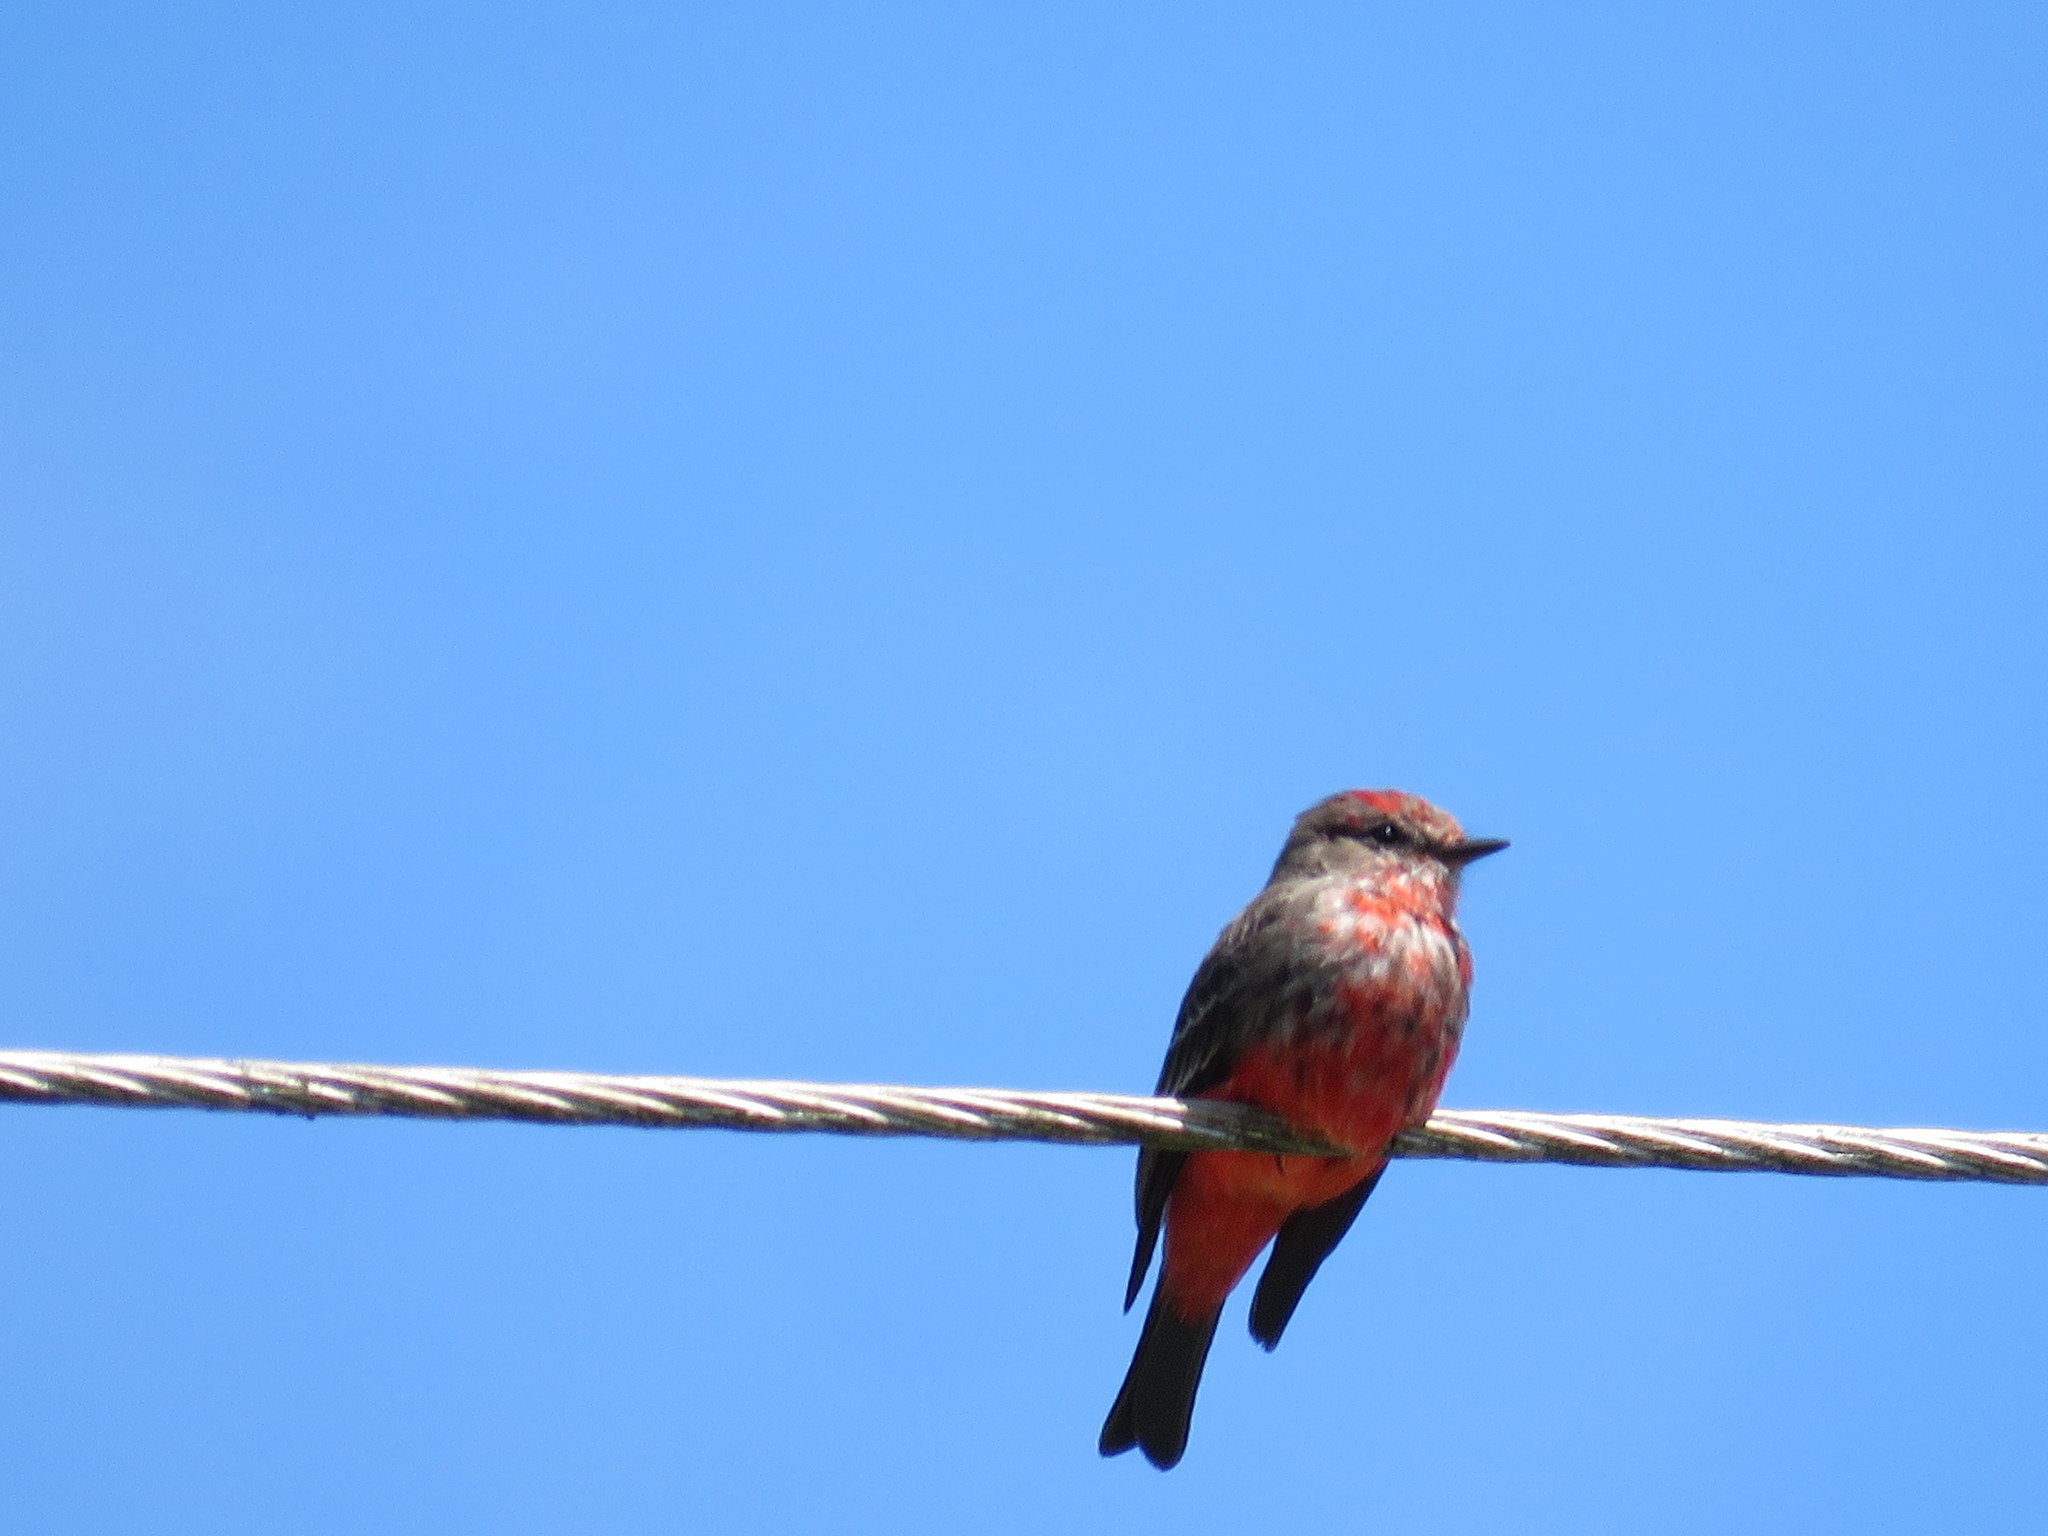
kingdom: Animalia
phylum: Chordata
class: Aves
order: Passeriformes
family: Tyrannidae
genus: Pyrocephalus
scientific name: Pyrocephalus rubinus
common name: Vermilion flycatcher
